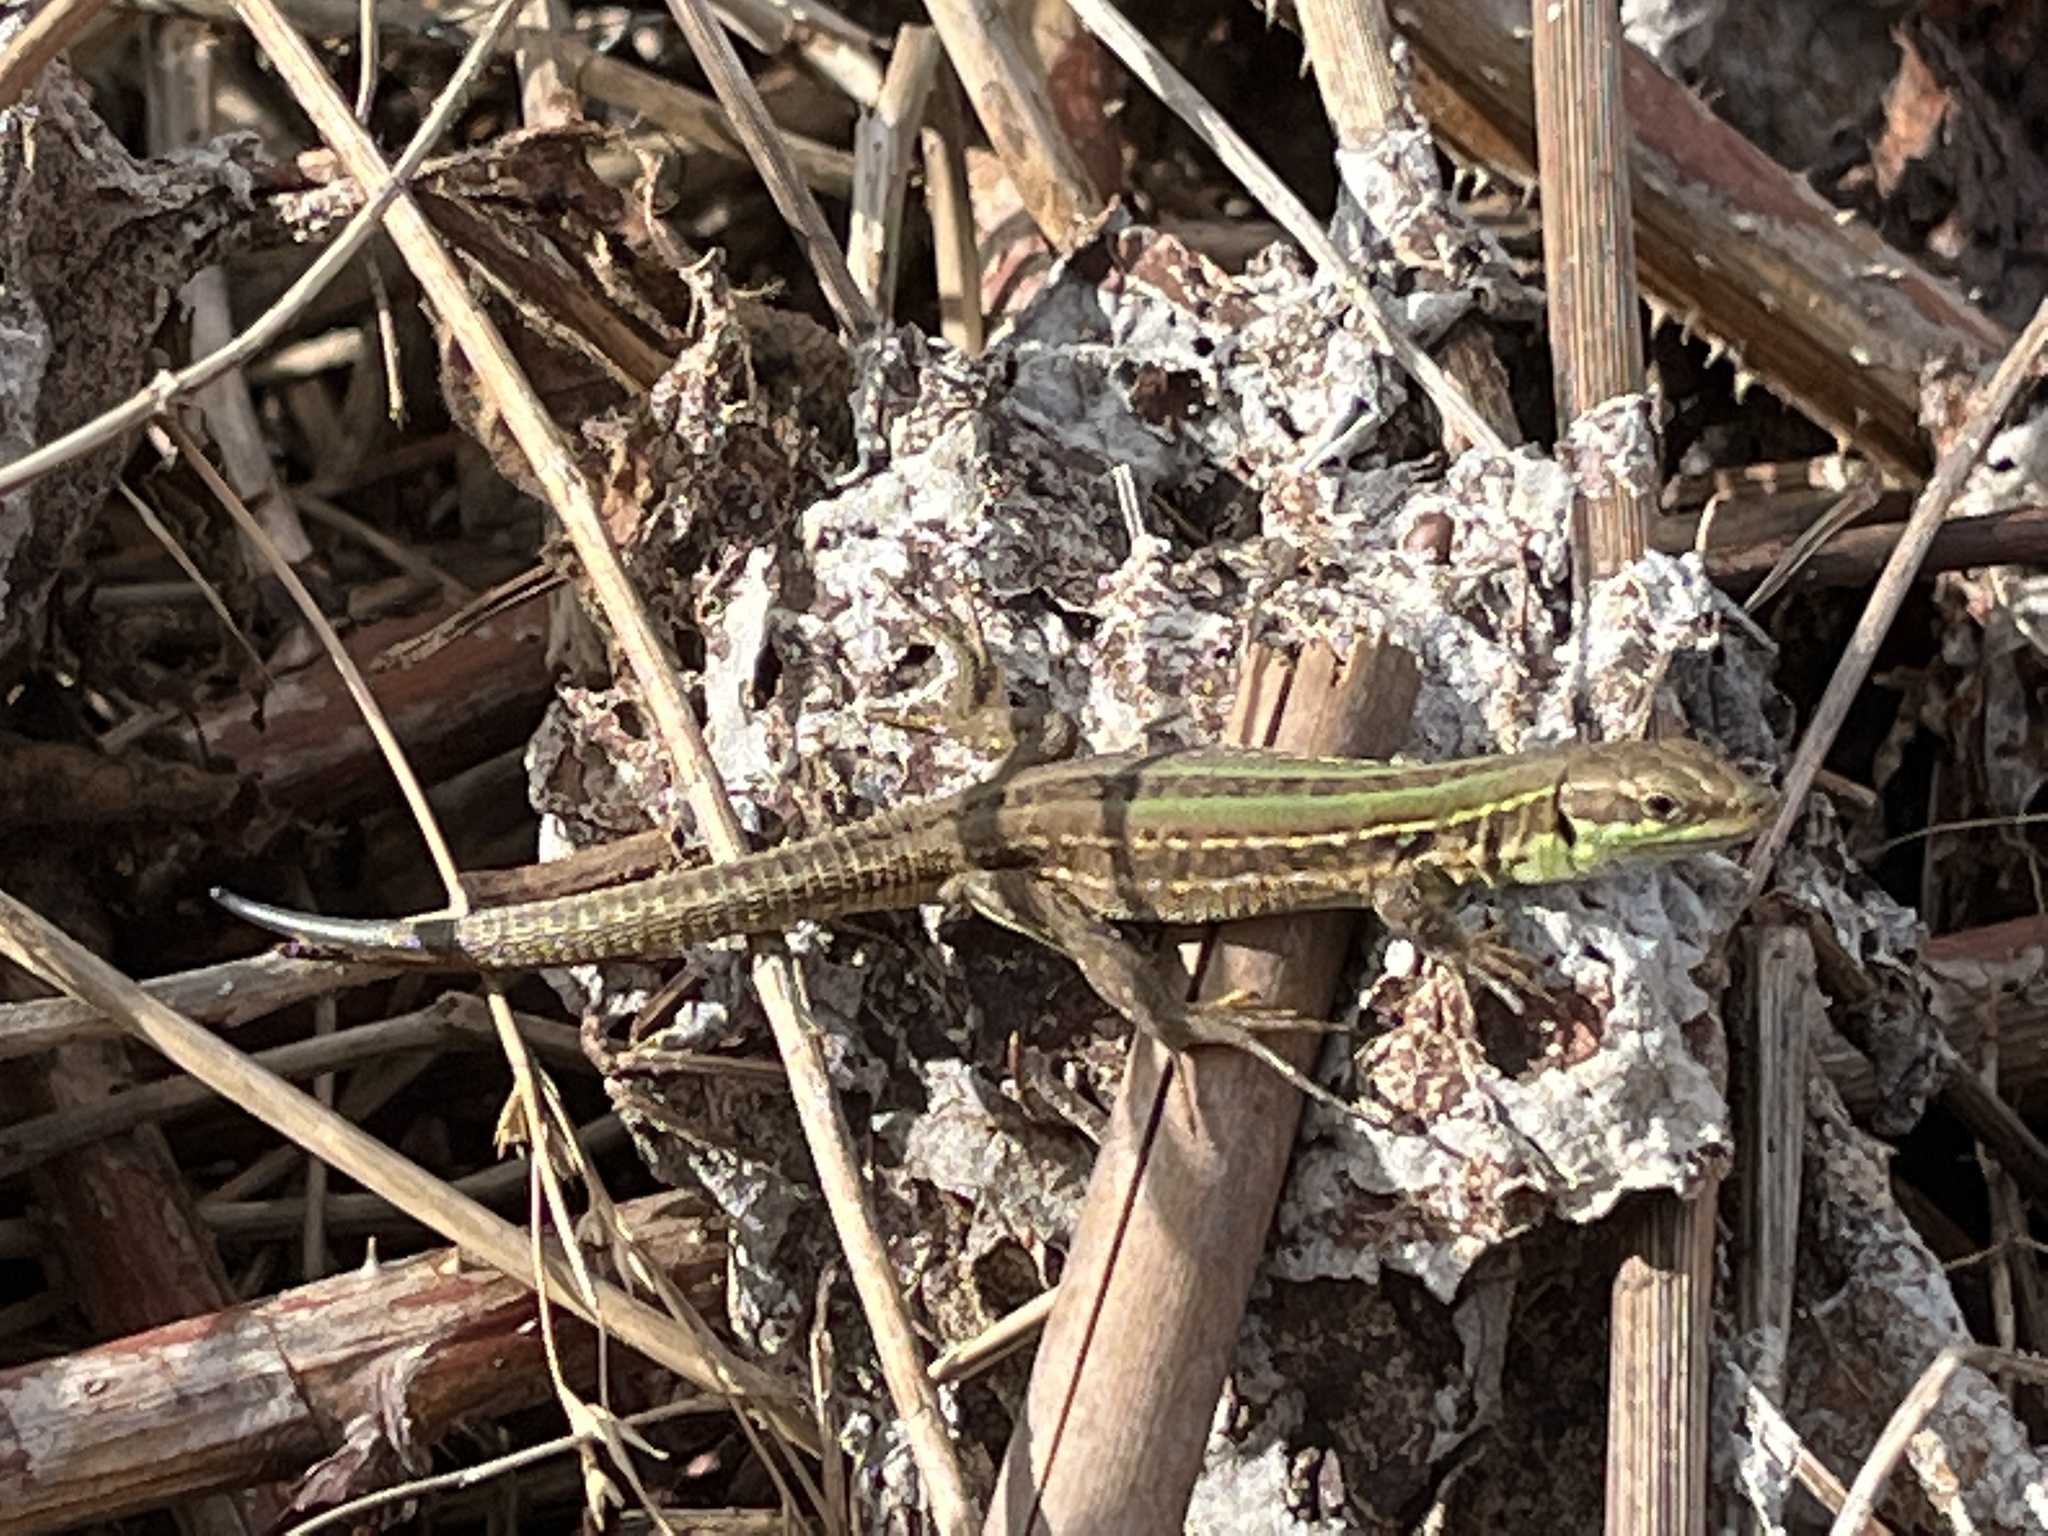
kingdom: Animalia
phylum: Chordata
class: Squamata
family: Lacertidae
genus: Podarcis
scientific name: Podarcis siculus
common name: Italian wall lizard
